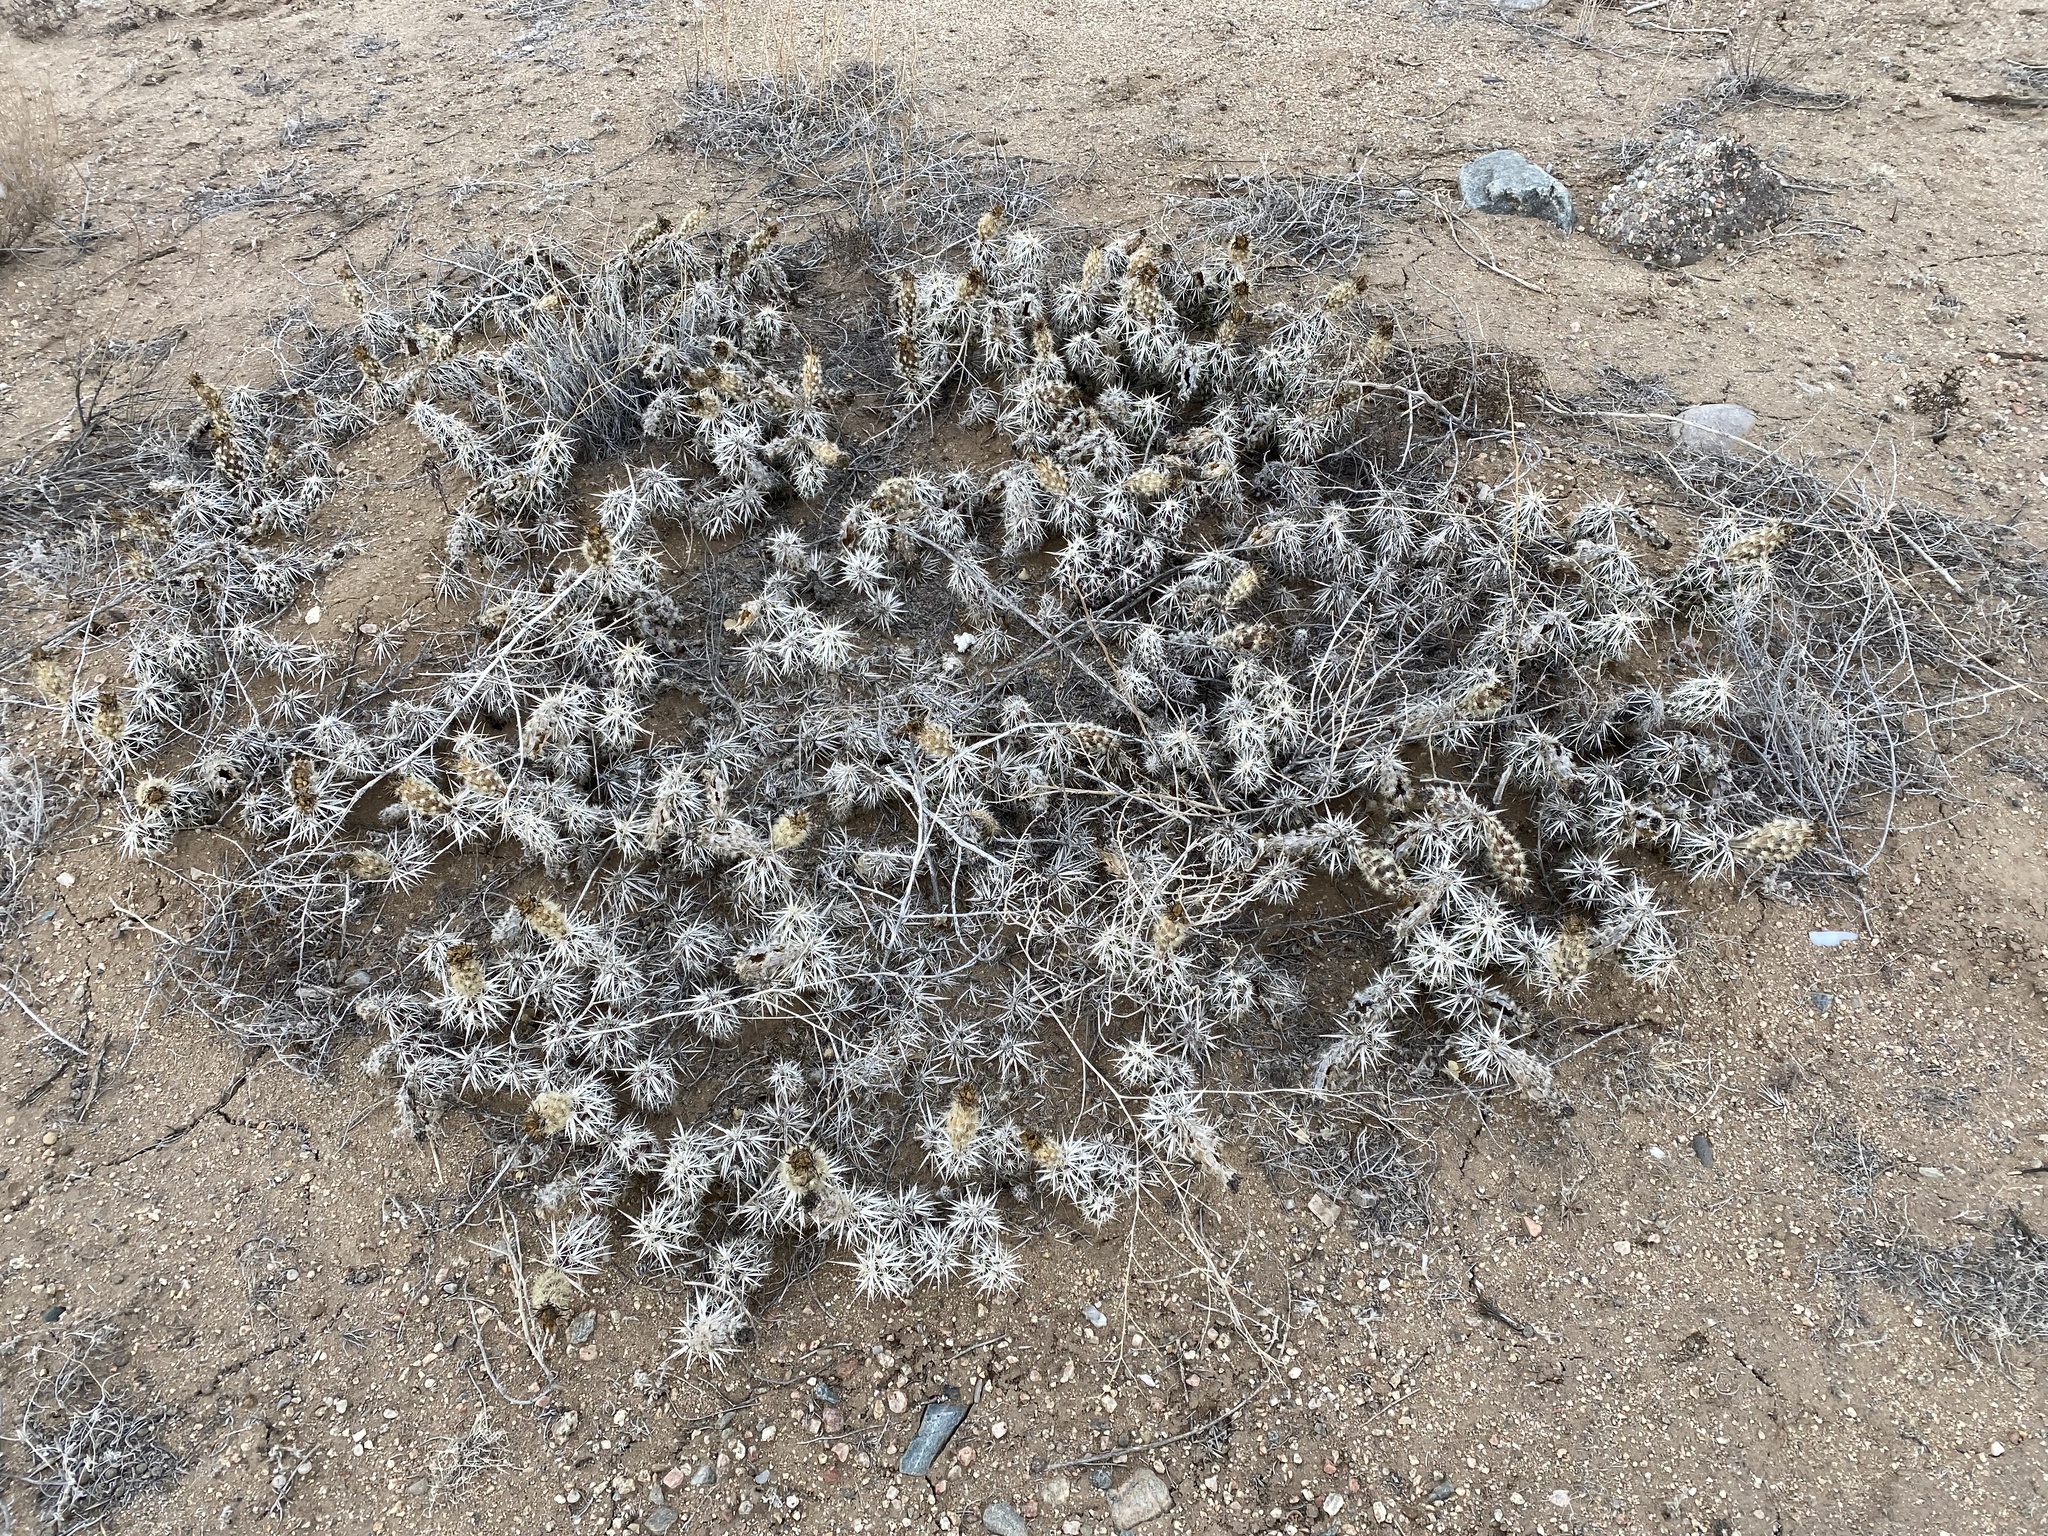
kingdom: Plantae
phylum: Tracheophyta
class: Magnoliopsida
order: Caryophyllales
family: Cactaceae
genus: Grusonia
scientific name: Grusonia clavata
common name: Club cholla
